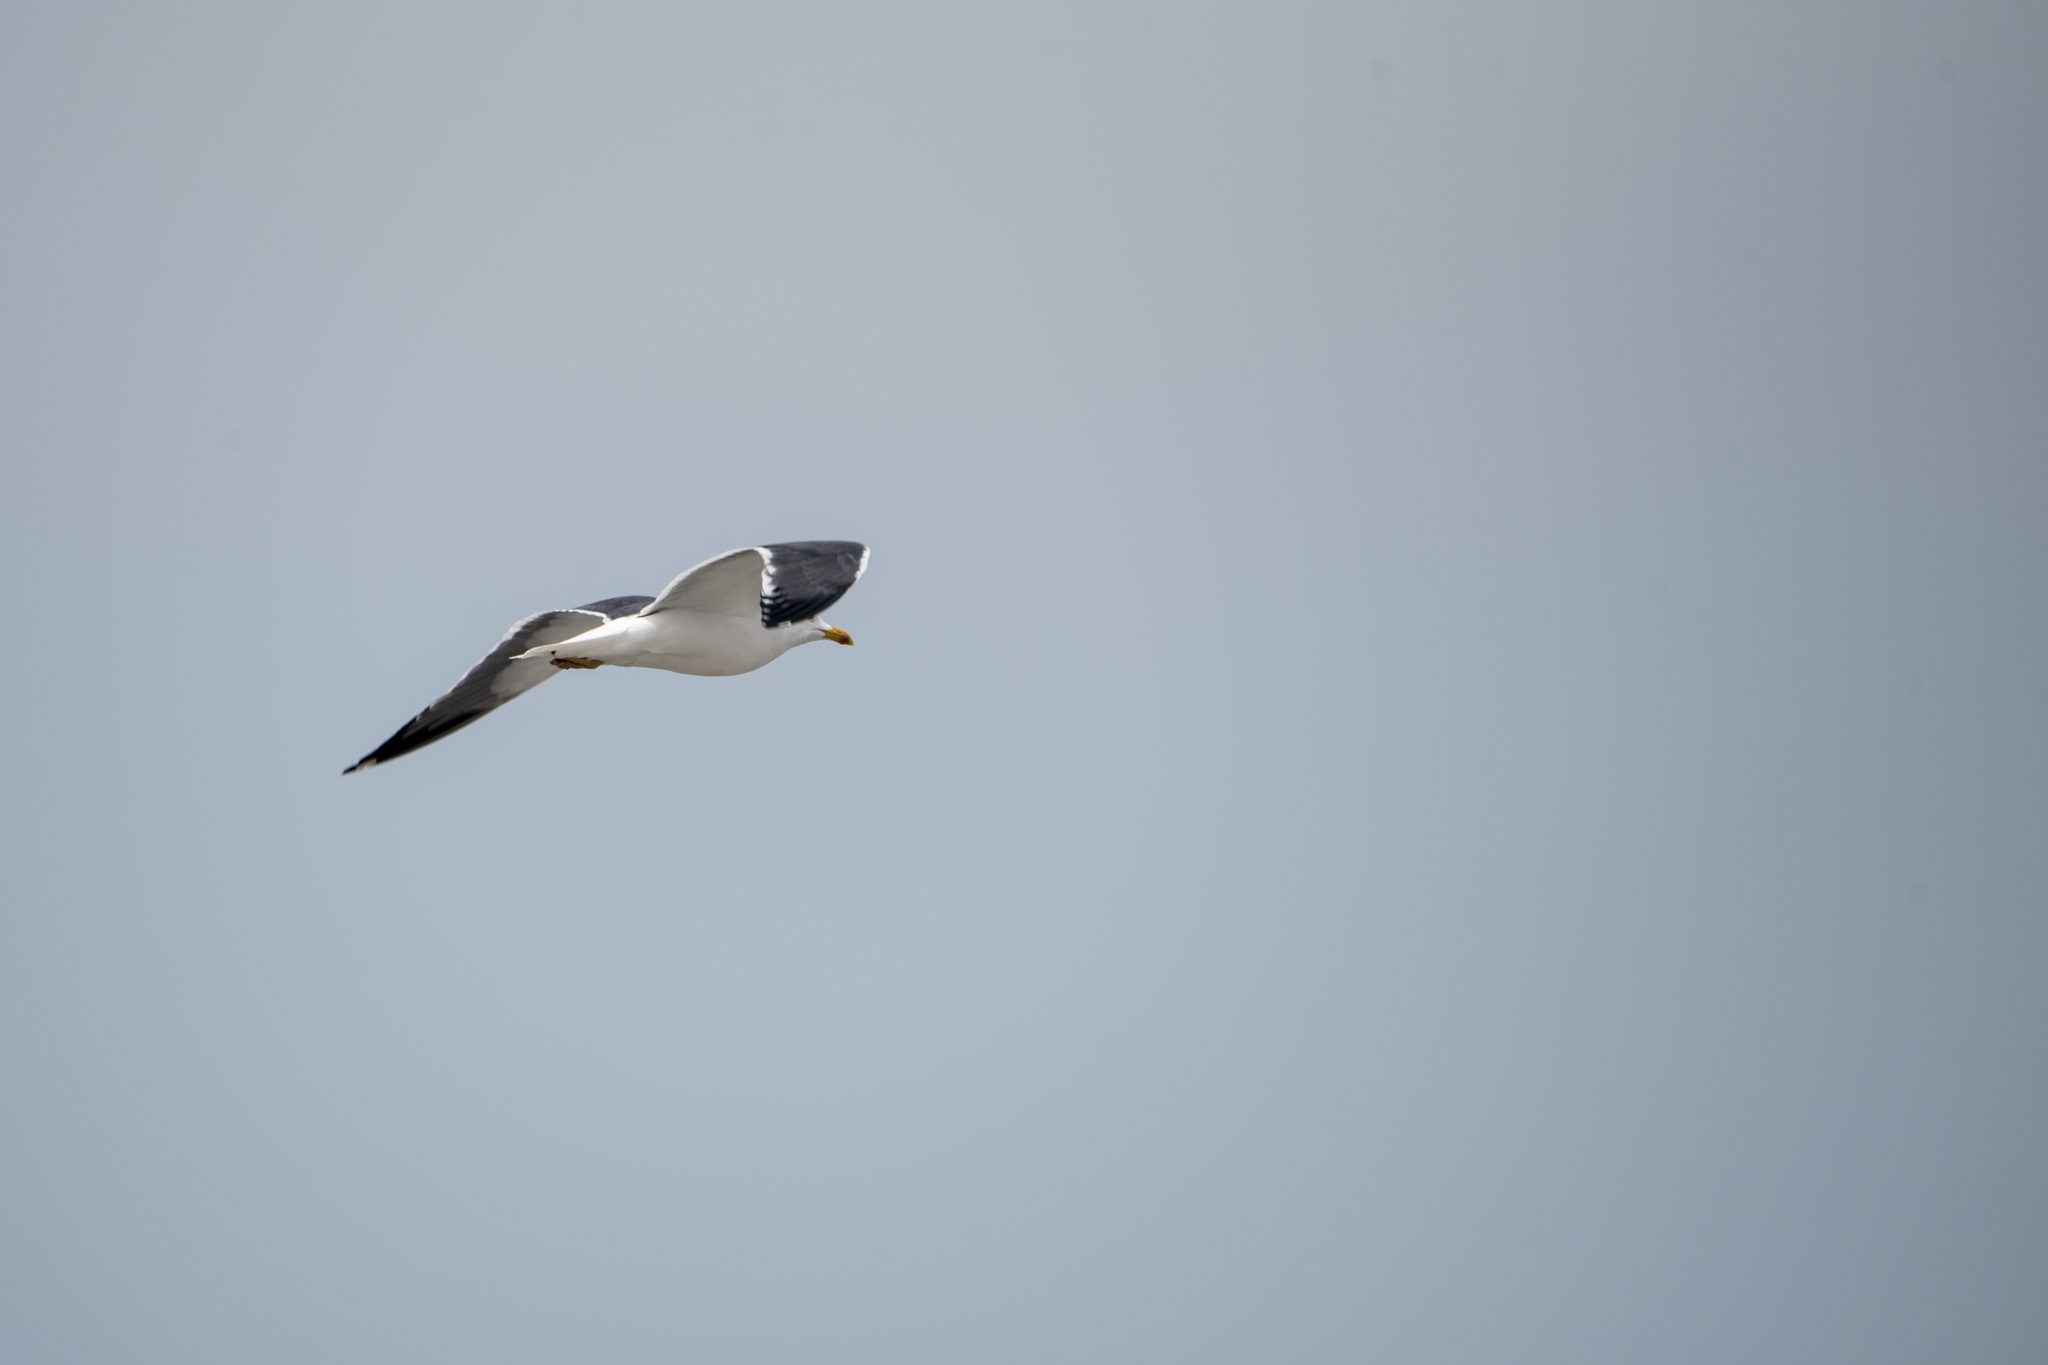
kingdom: Animalia
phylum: Chordata
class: Aves
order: Charadriiformes
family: Laridae
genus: Larus
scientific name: Larus argentatus
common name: Herring gull
